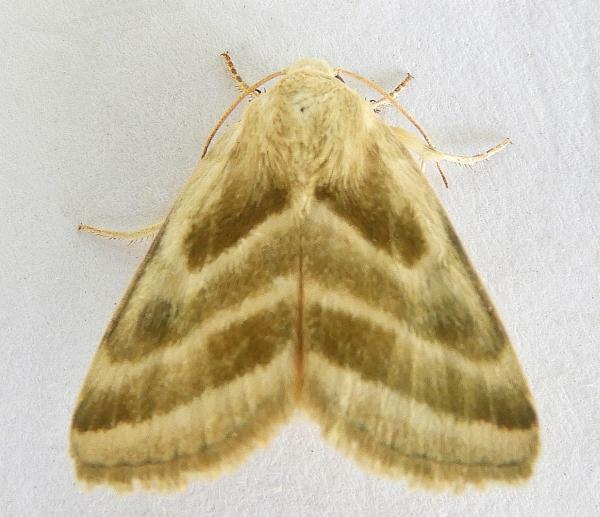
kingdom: Animalia
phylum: Arthropoda
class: Insecta
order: Lepidoptera
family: Noctuidae
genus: Schinia
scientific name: Schinia trifascia
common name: Three-lined flower moth
